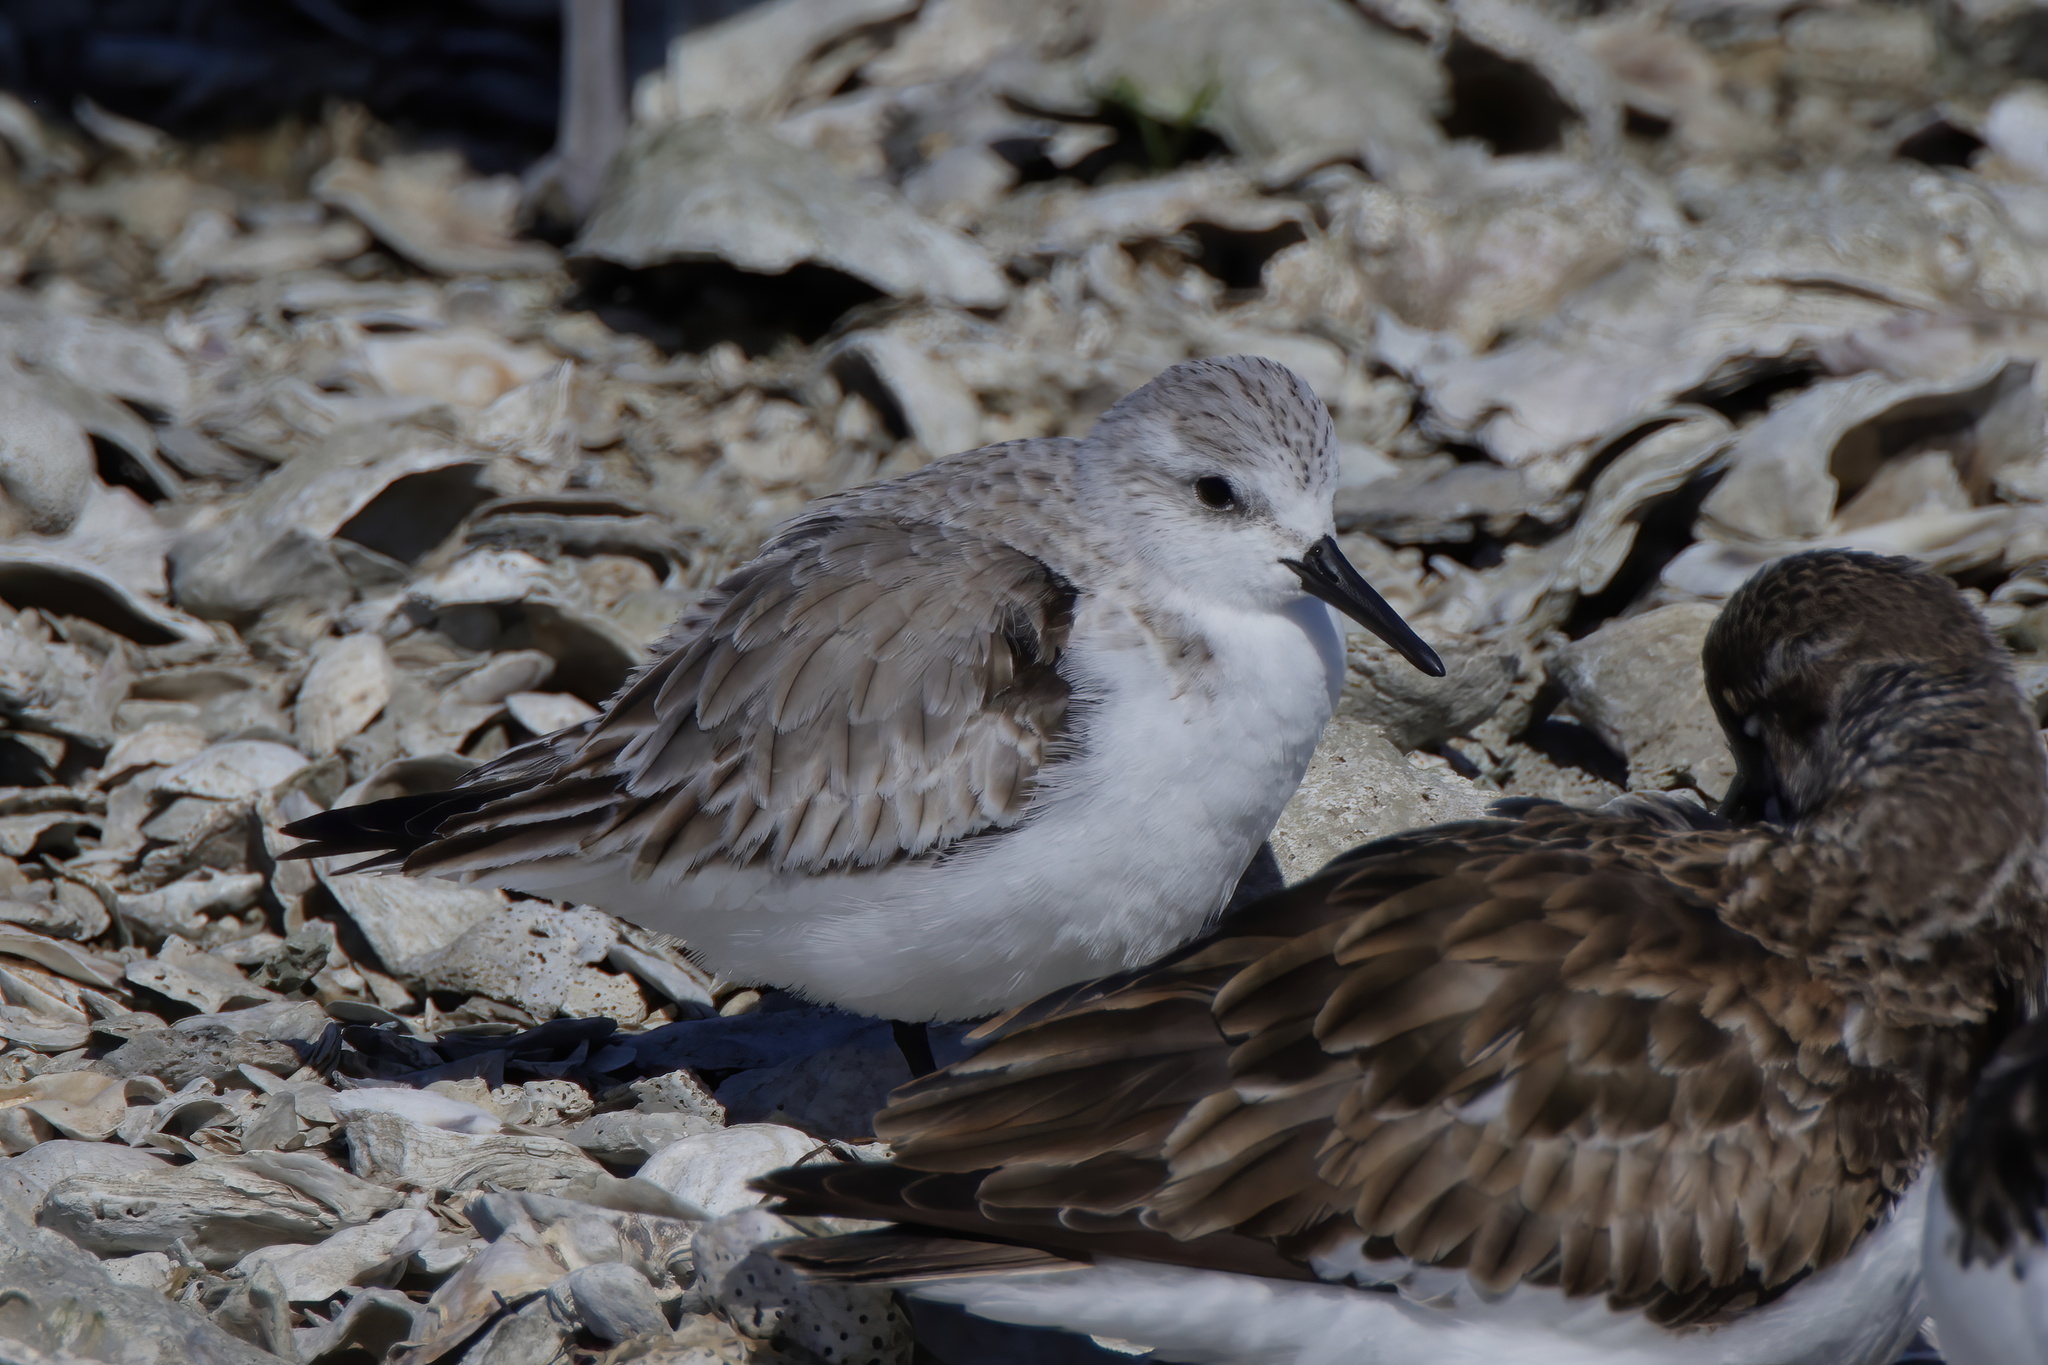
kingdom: Animalia
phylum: Chordata
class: Aves
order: Charadriiformes
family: Scolopacidae
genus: Calidris
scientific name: Calidris alba
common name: Sanderling
